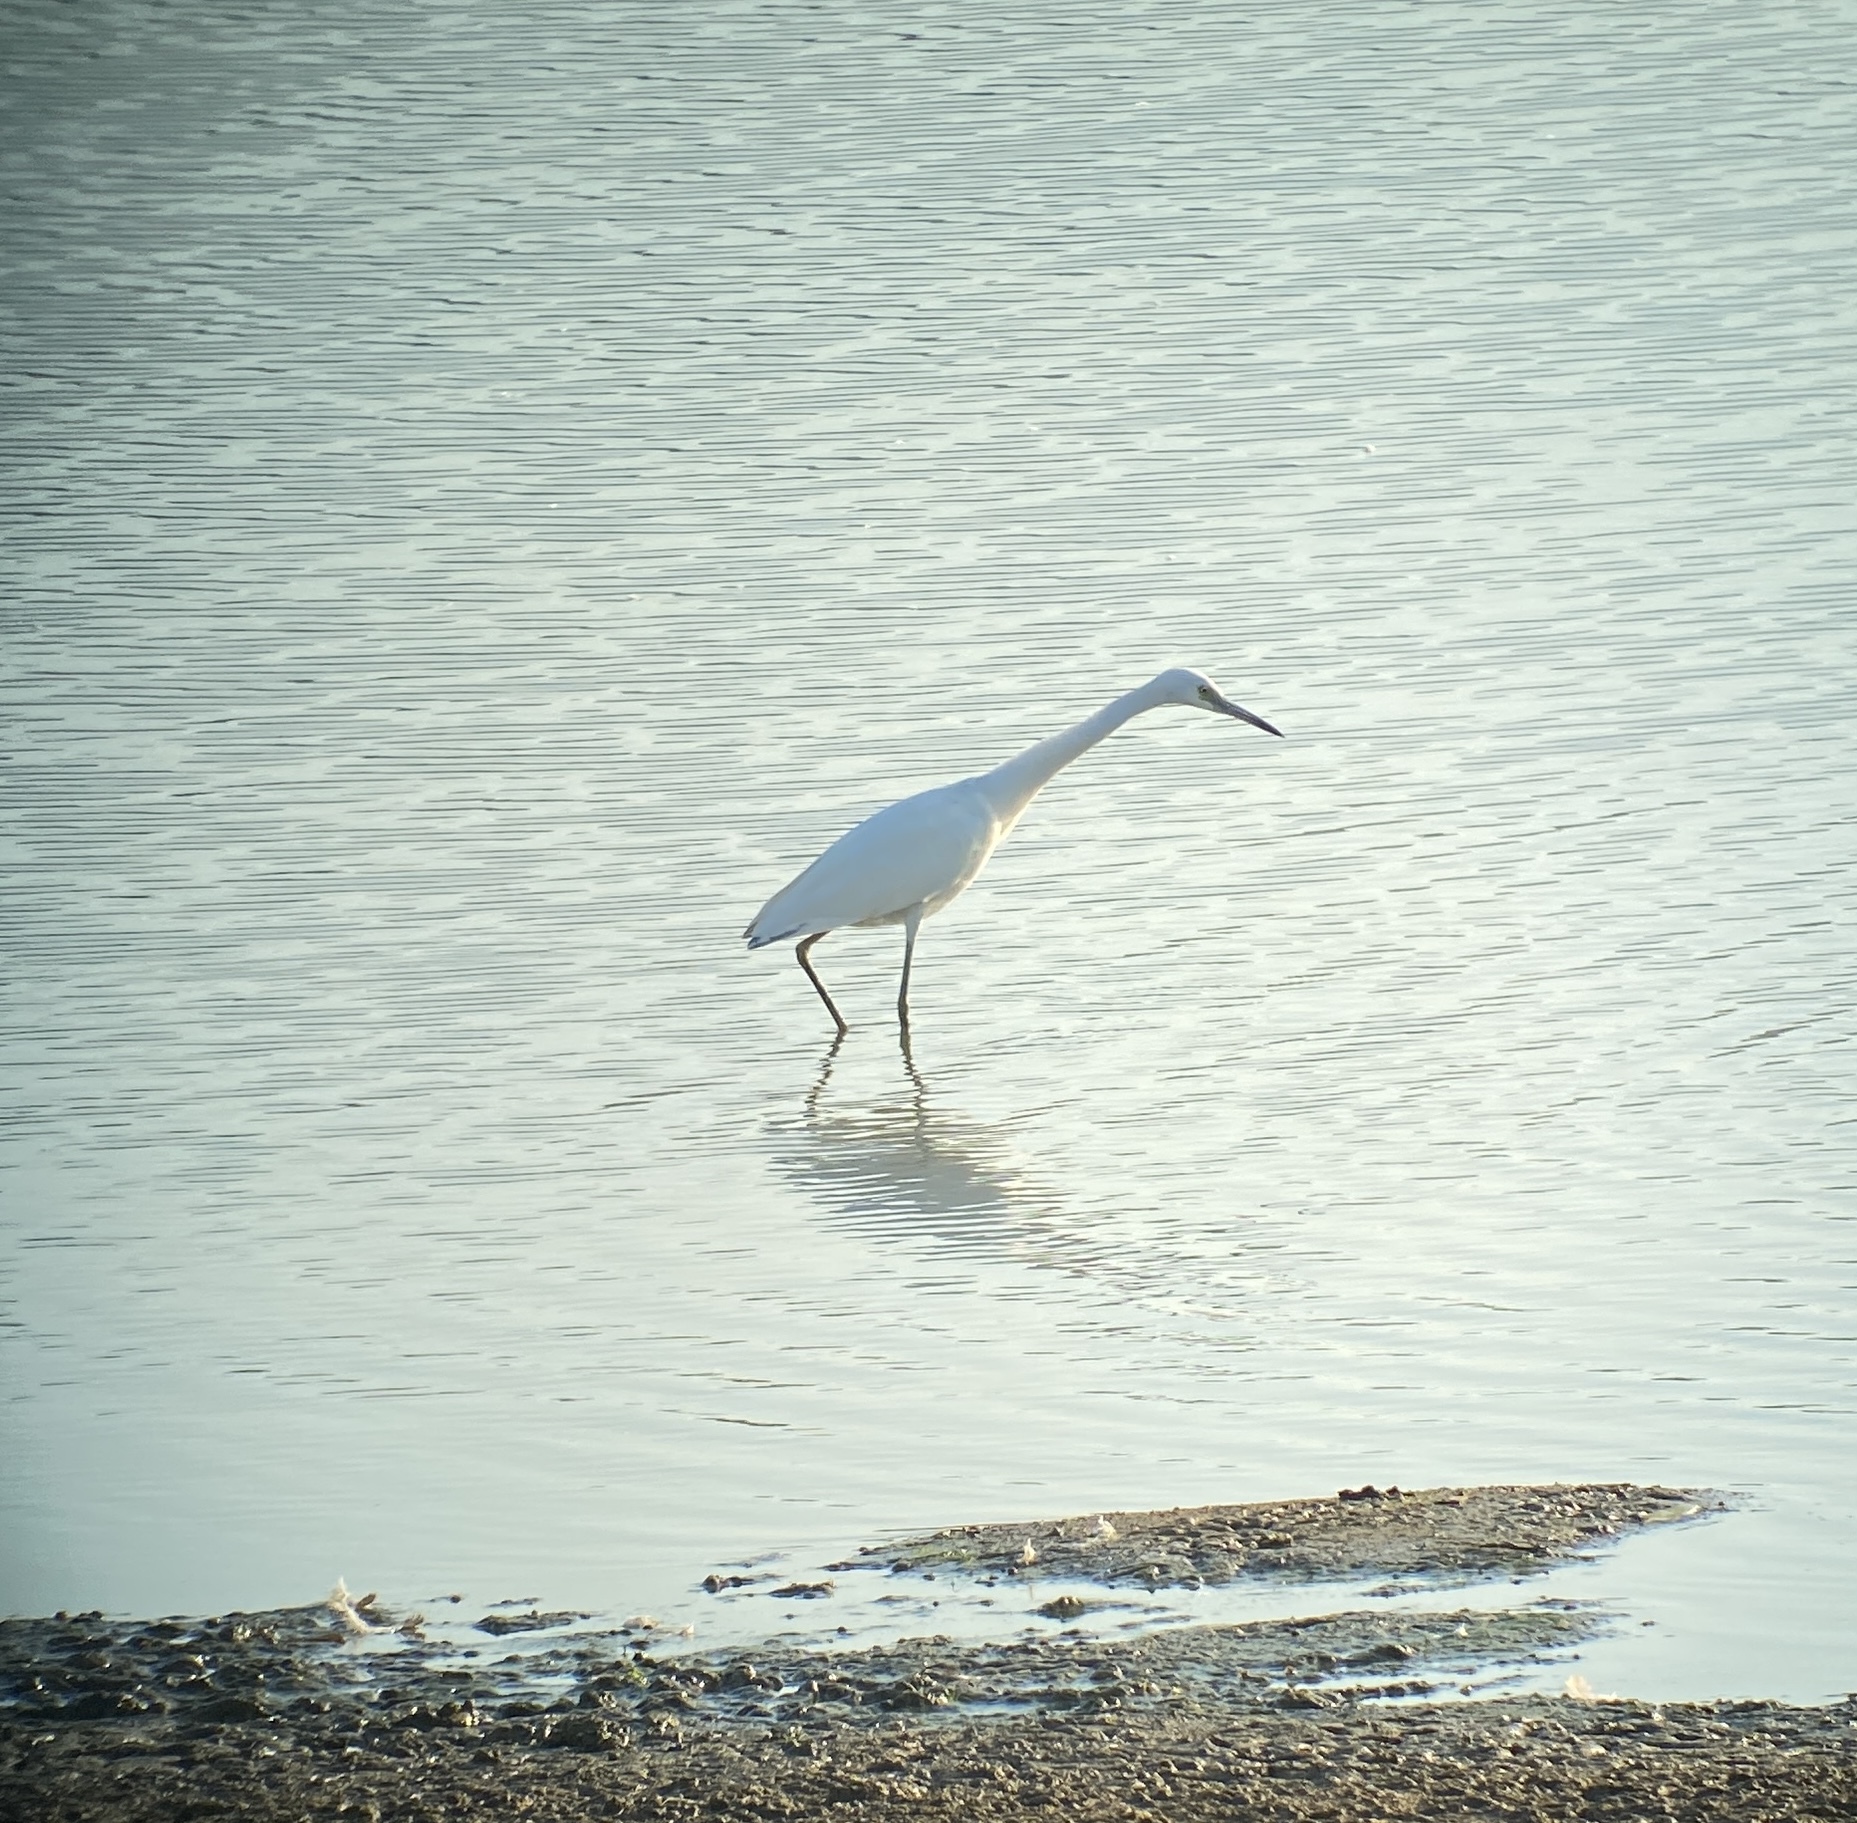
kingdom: Animalia
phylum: Chordata
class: Aves
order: Pelecaniformes
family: Ardeidae
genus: Egretta
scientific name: Egretta caerulea
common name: Little blue heron
